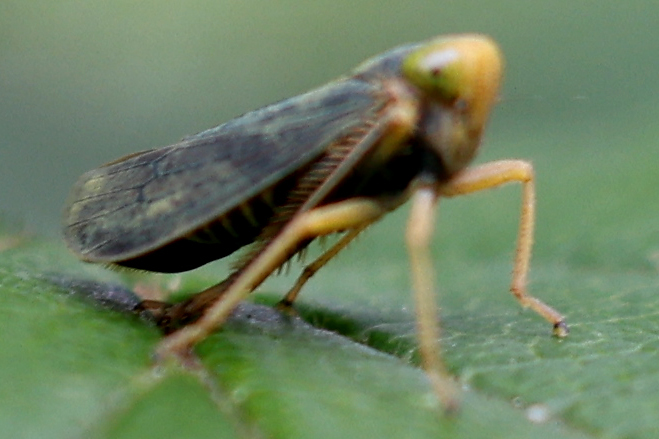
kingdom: Animalia
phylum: Arthropoda
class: Insecta
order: Hemiptera
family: Cicadellidae
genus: Jikradia
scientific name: Jikradia olitoria
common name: Coppery leafhopper
